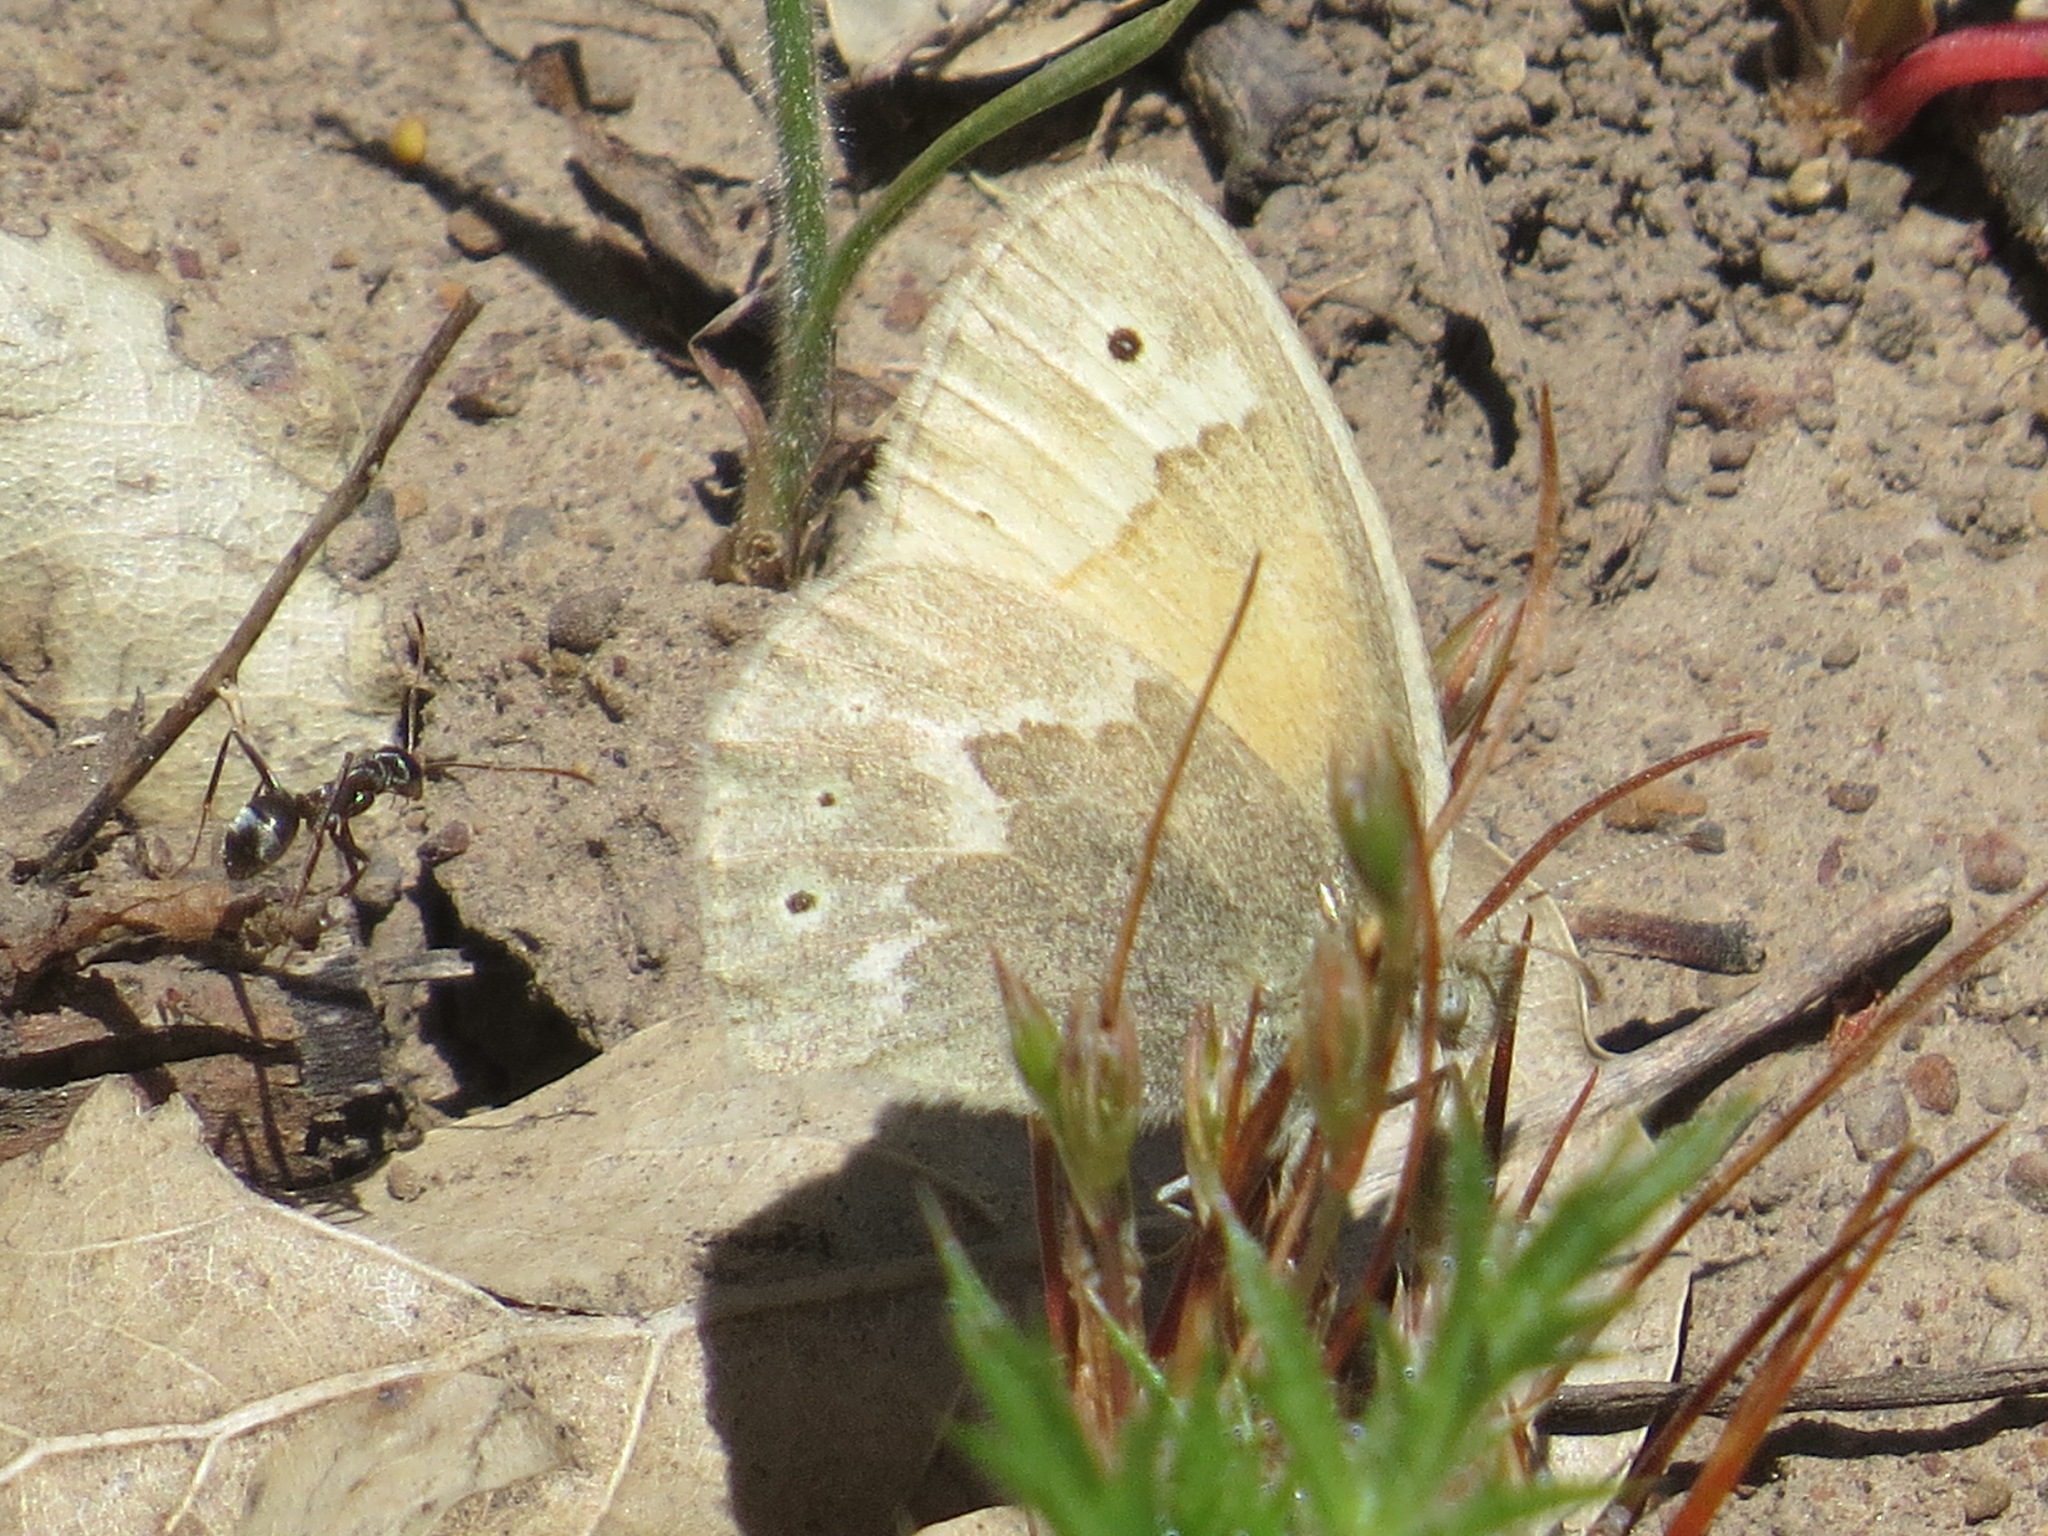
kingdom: Animalia
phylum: Arthropoda
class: Insecta
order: Lepidoptera
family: Nymphalidae
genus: Coenonympha
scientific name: Coenonympha california
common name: Common ringlet
